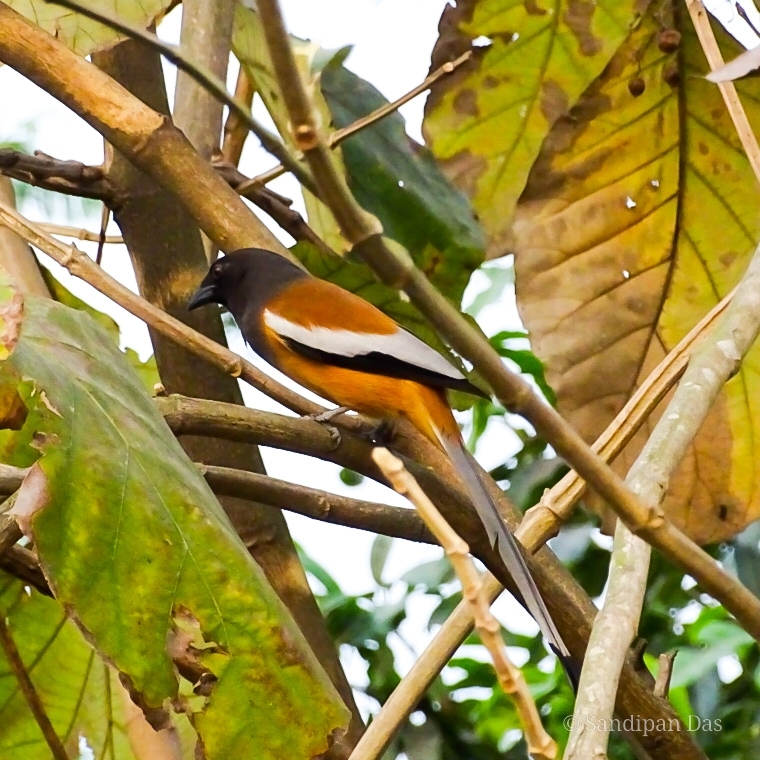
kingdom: Animalia
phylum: Chordata
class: Aves
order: Passeriformes
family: Corvidae
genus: Dendrocitta
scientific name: Dendrocitta vagabunda
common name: Rufous treepie
